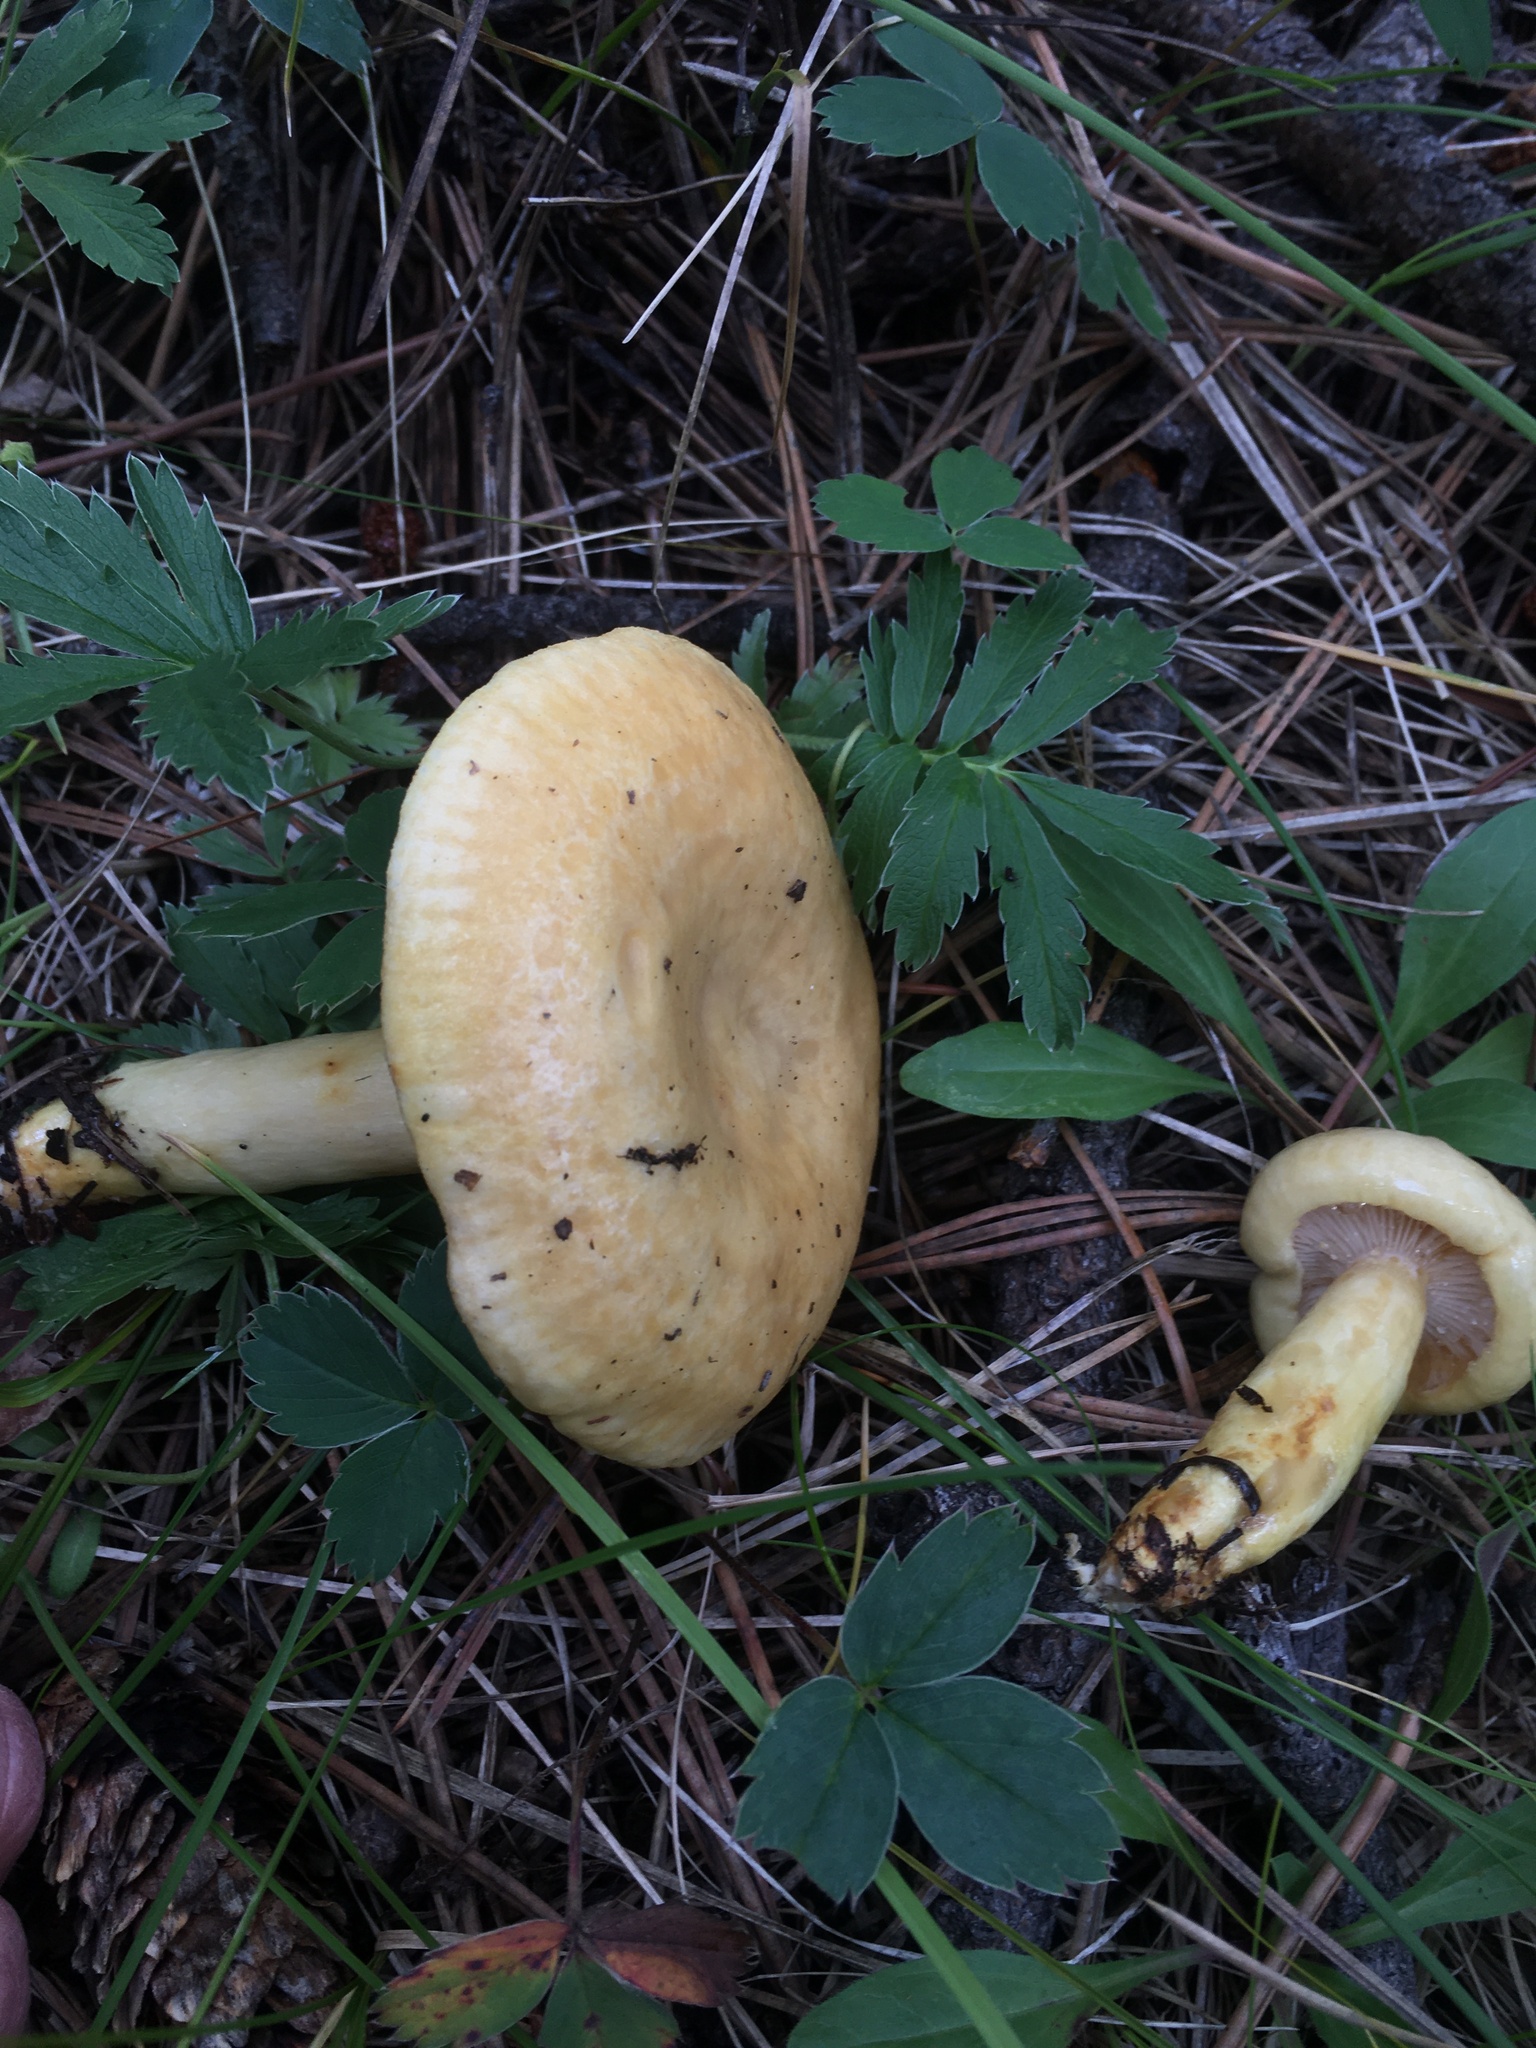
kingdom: Fungi
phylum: Basidiomycota
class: Agaricomycetes
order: Agaricales
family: Hygrophoraceae
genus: Hygrophorus
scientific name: Hygrophorus ligatus
